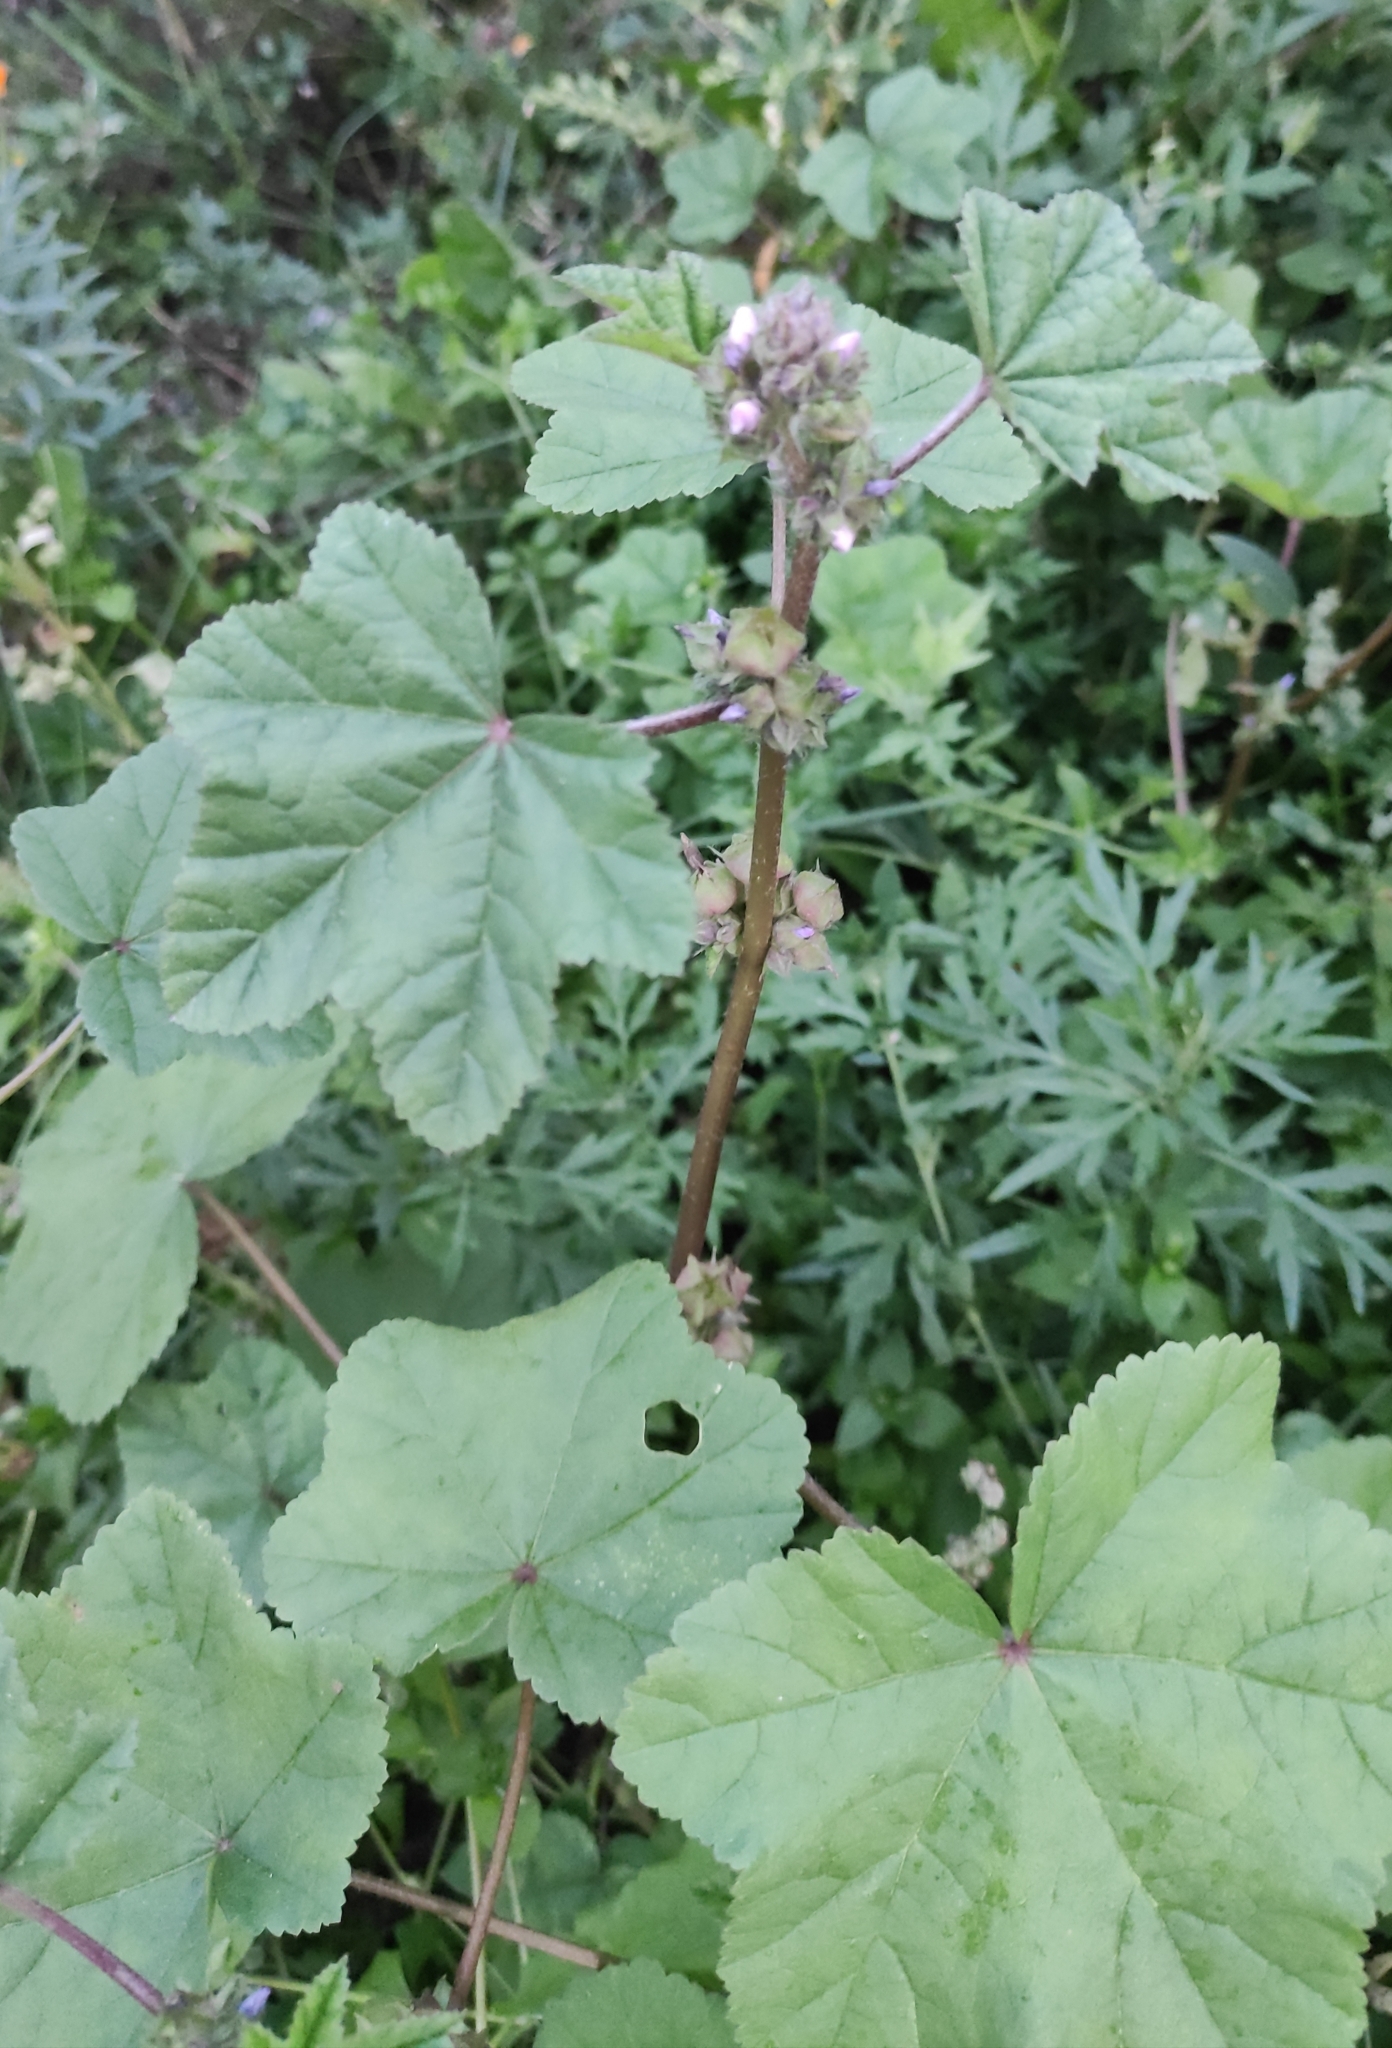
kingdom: Plantae
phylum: Tracheophyta
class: Magnoliopsida
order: Malvales
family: Malvaceae
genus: Malva
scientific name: Malva verticillata
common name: Chinese mallow
